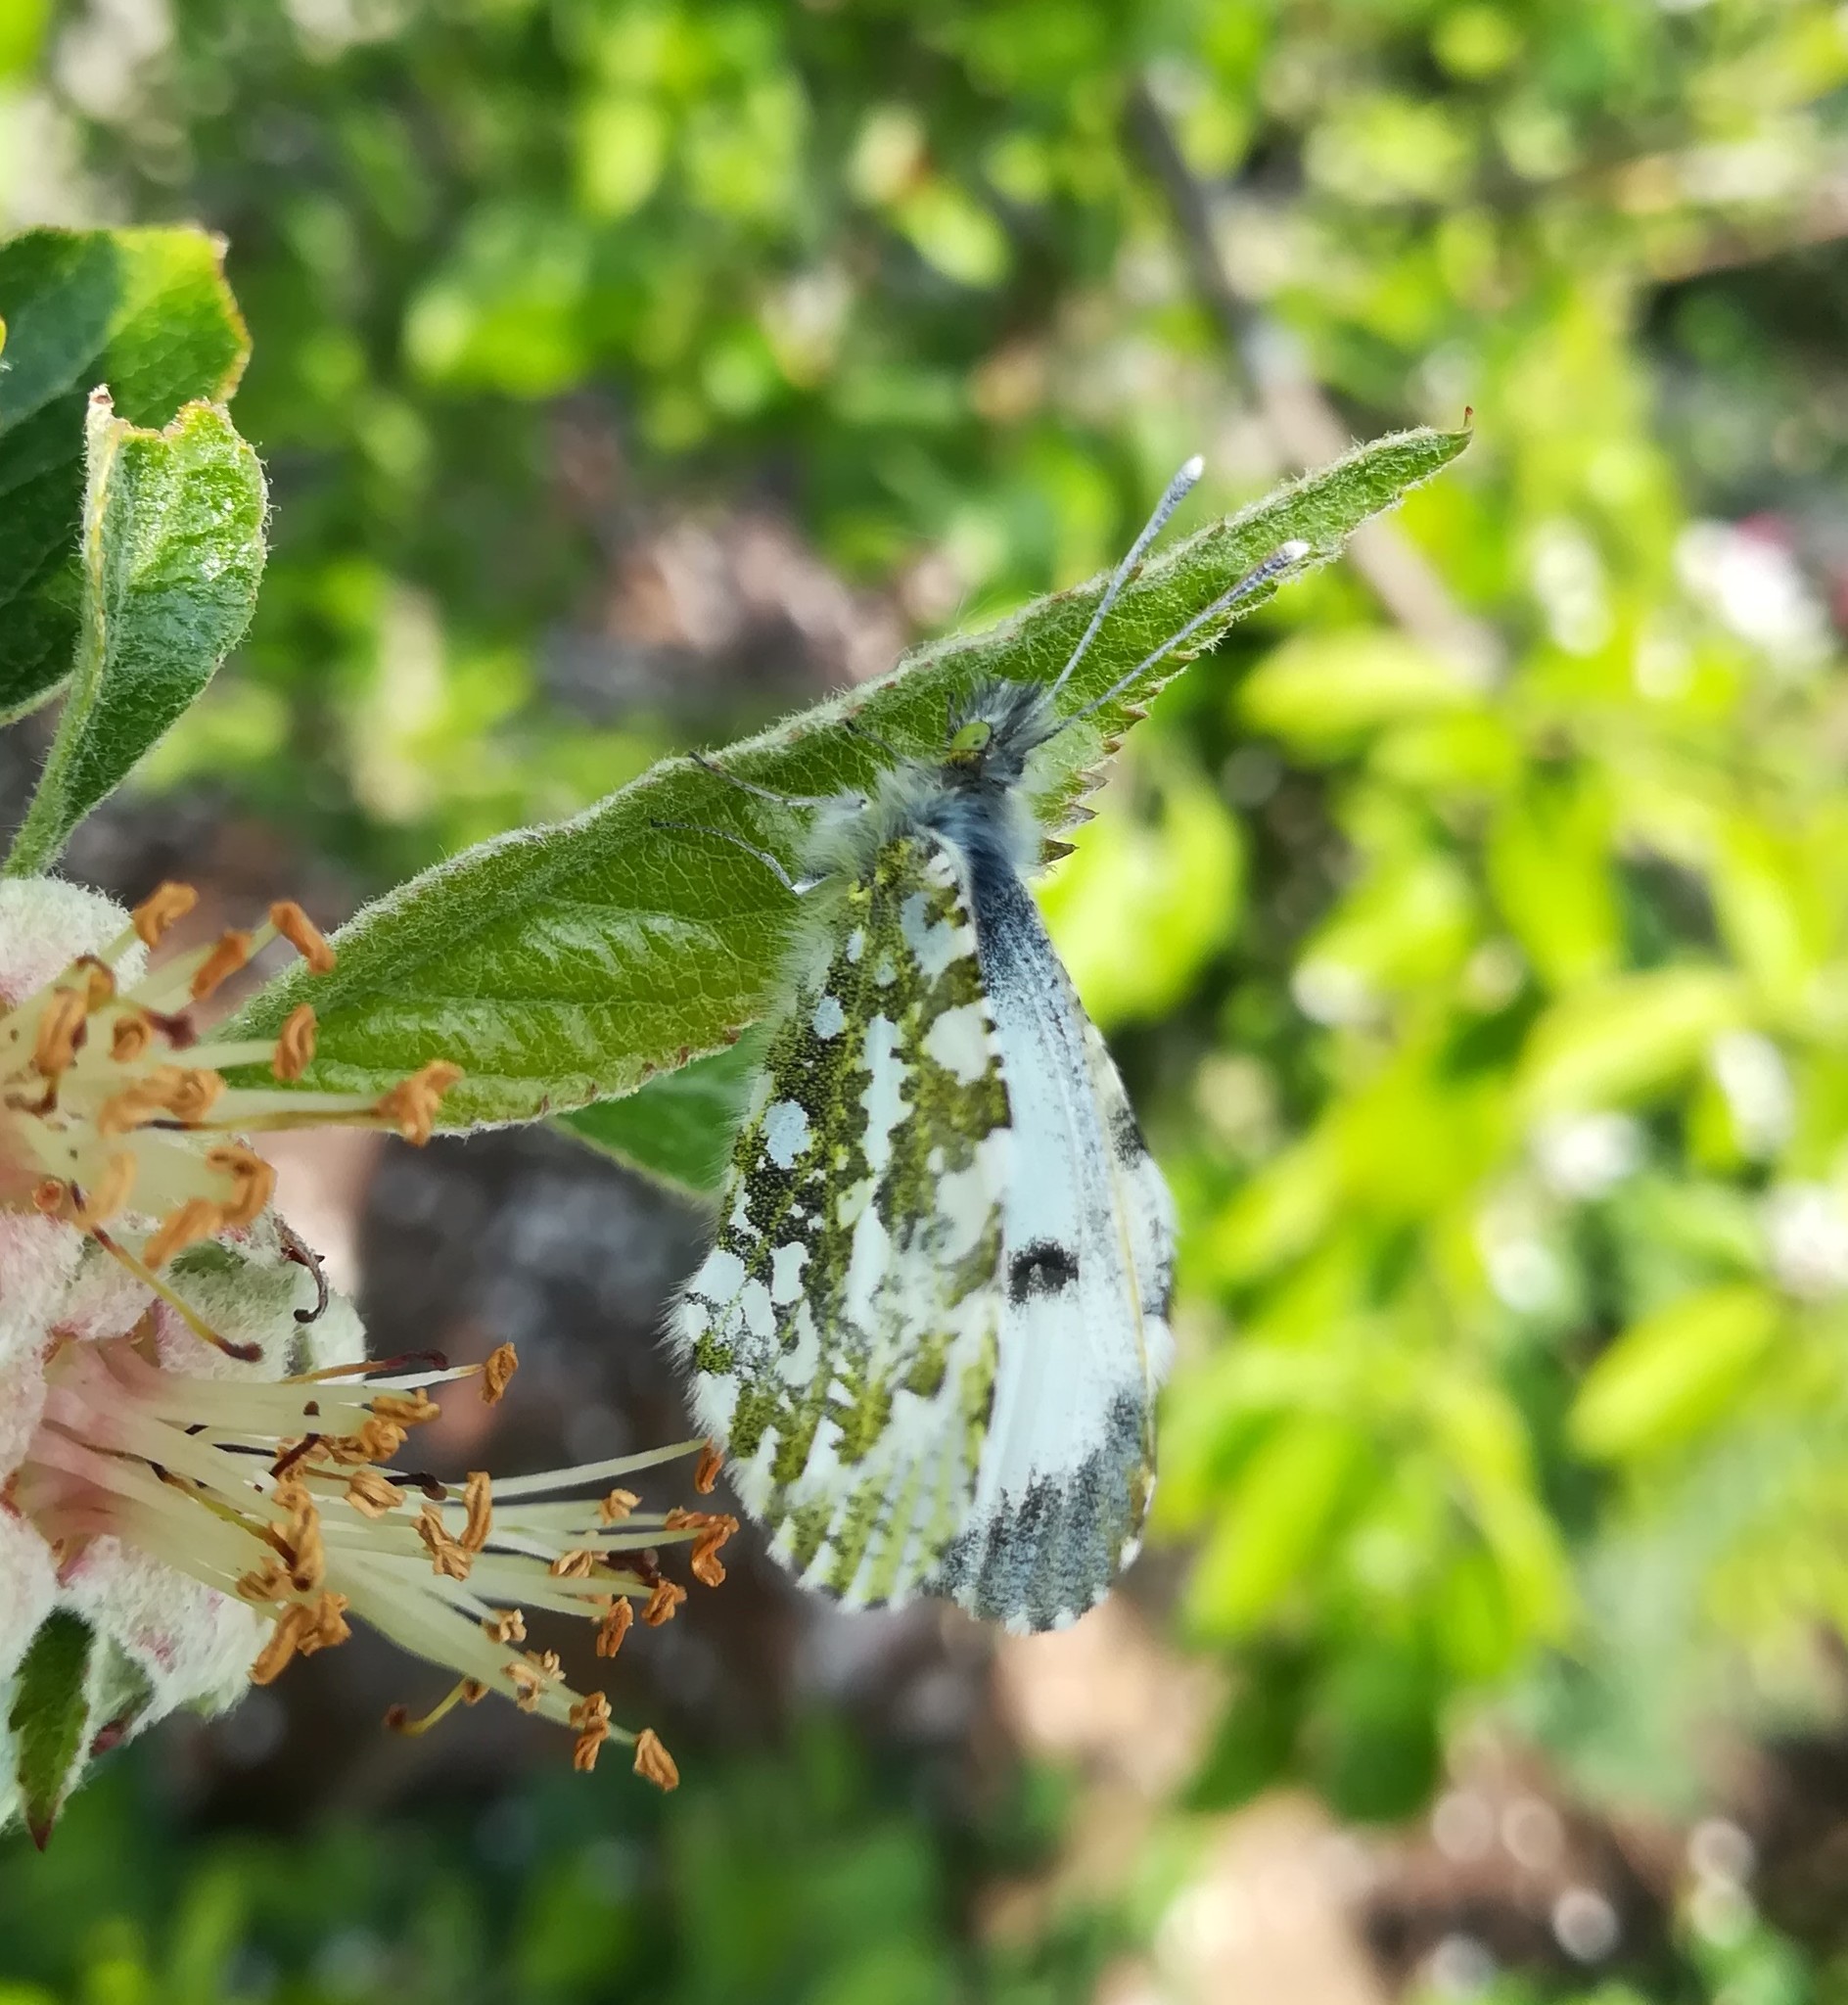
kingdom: Animalia
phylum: Arthropoda
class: Insecta
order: Lepidoptera
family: Pieridae
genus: Anthocharis
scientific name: Anthocharis cardamines
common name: Orange-tip
